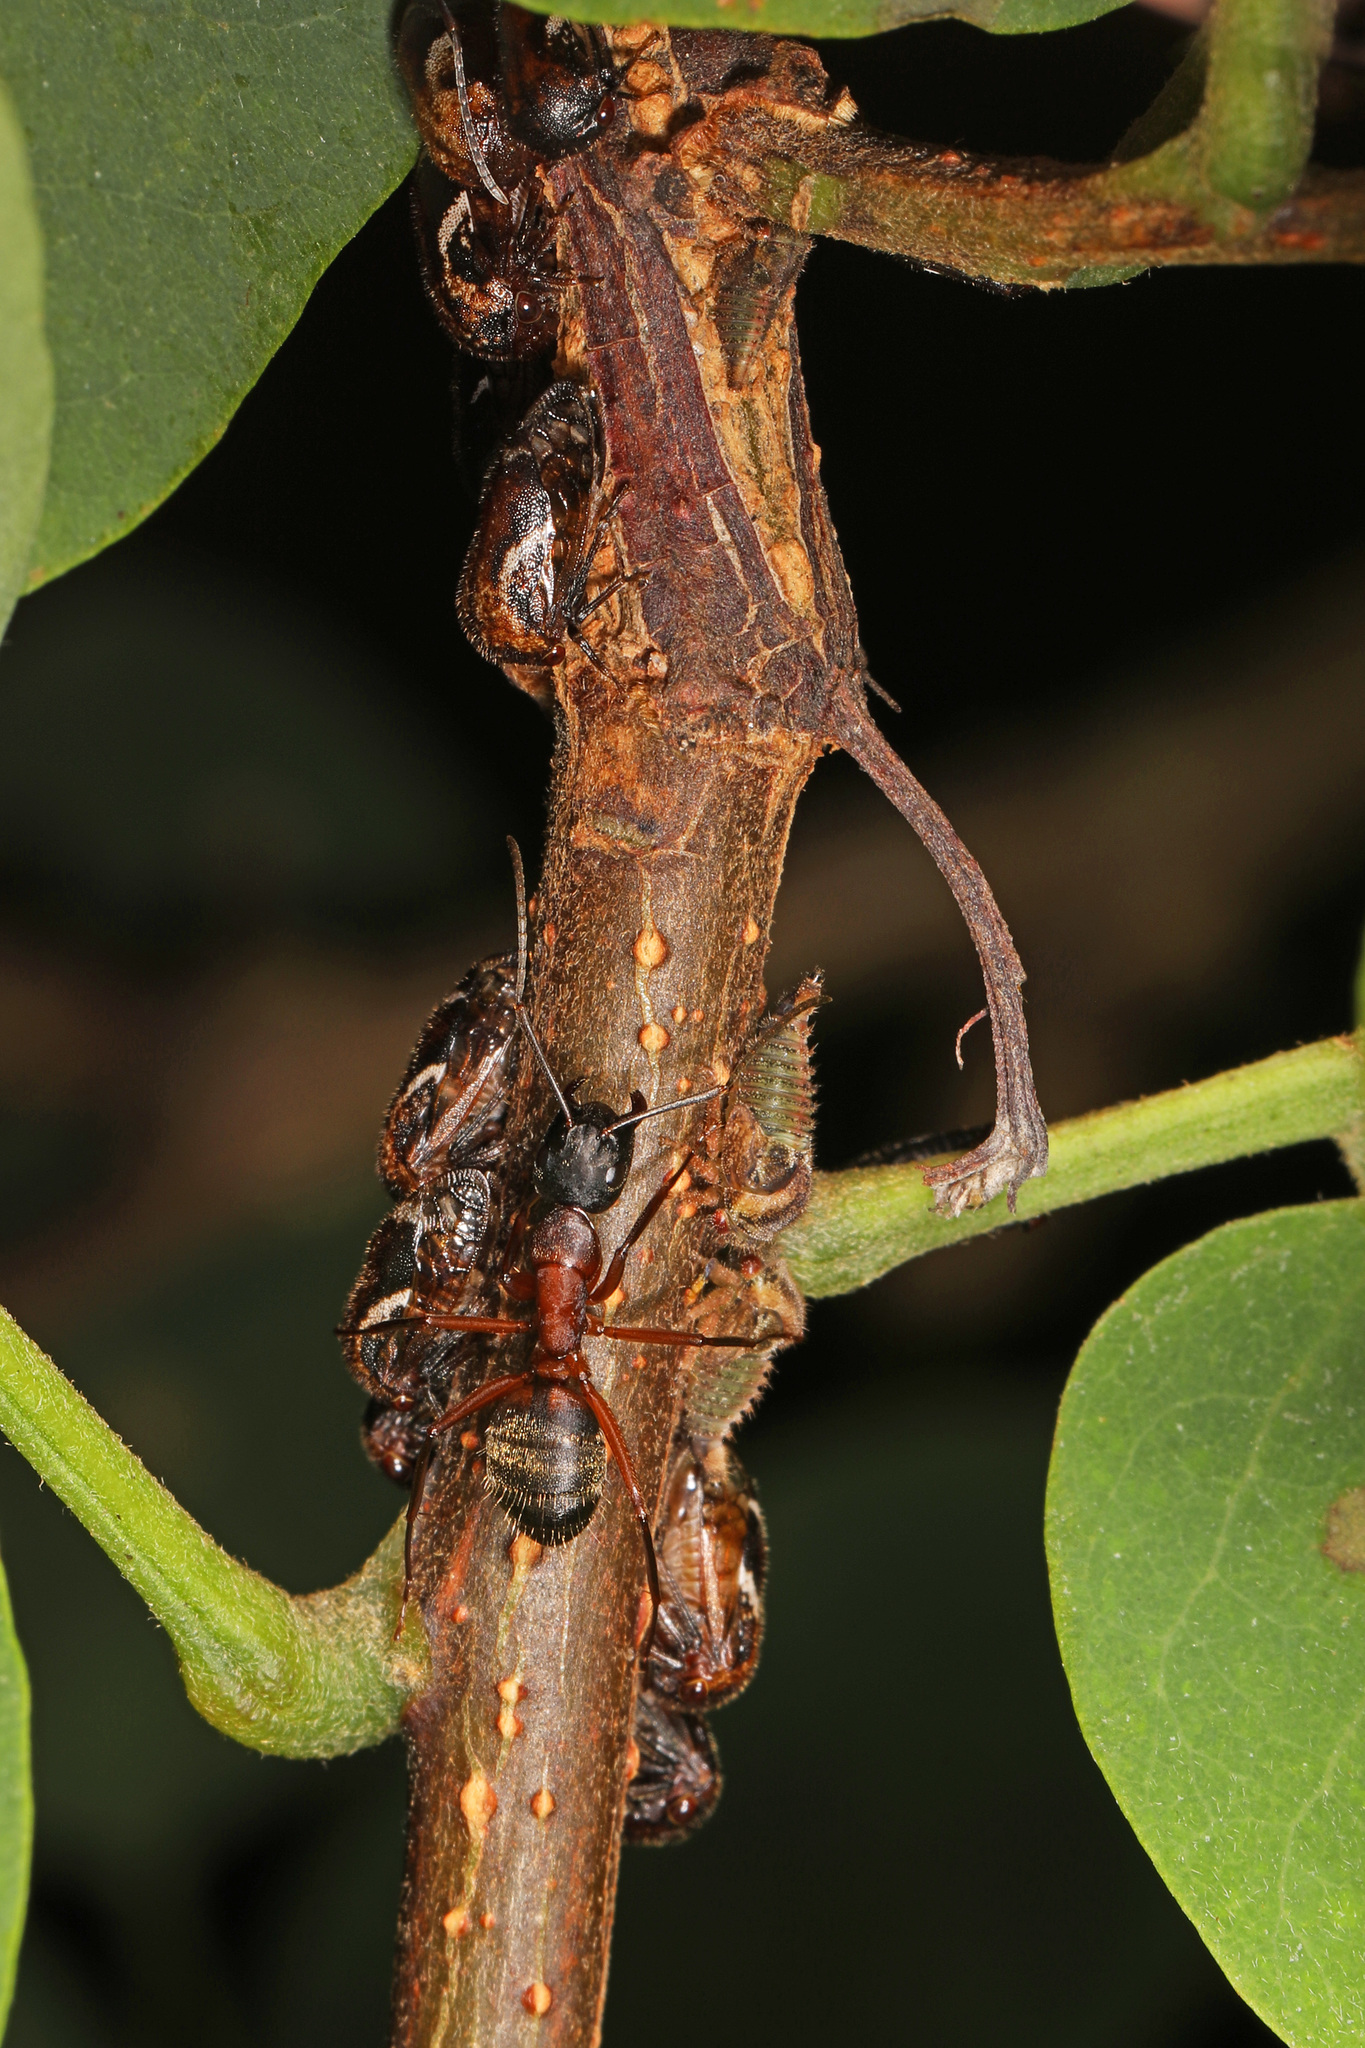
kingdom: Animalia
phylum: Arthropoda
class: Insecta
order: Hymenoptera
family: Formicidae
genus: Camponotus
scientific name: Camponotus chromaiodes
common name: Red carpenter ant
